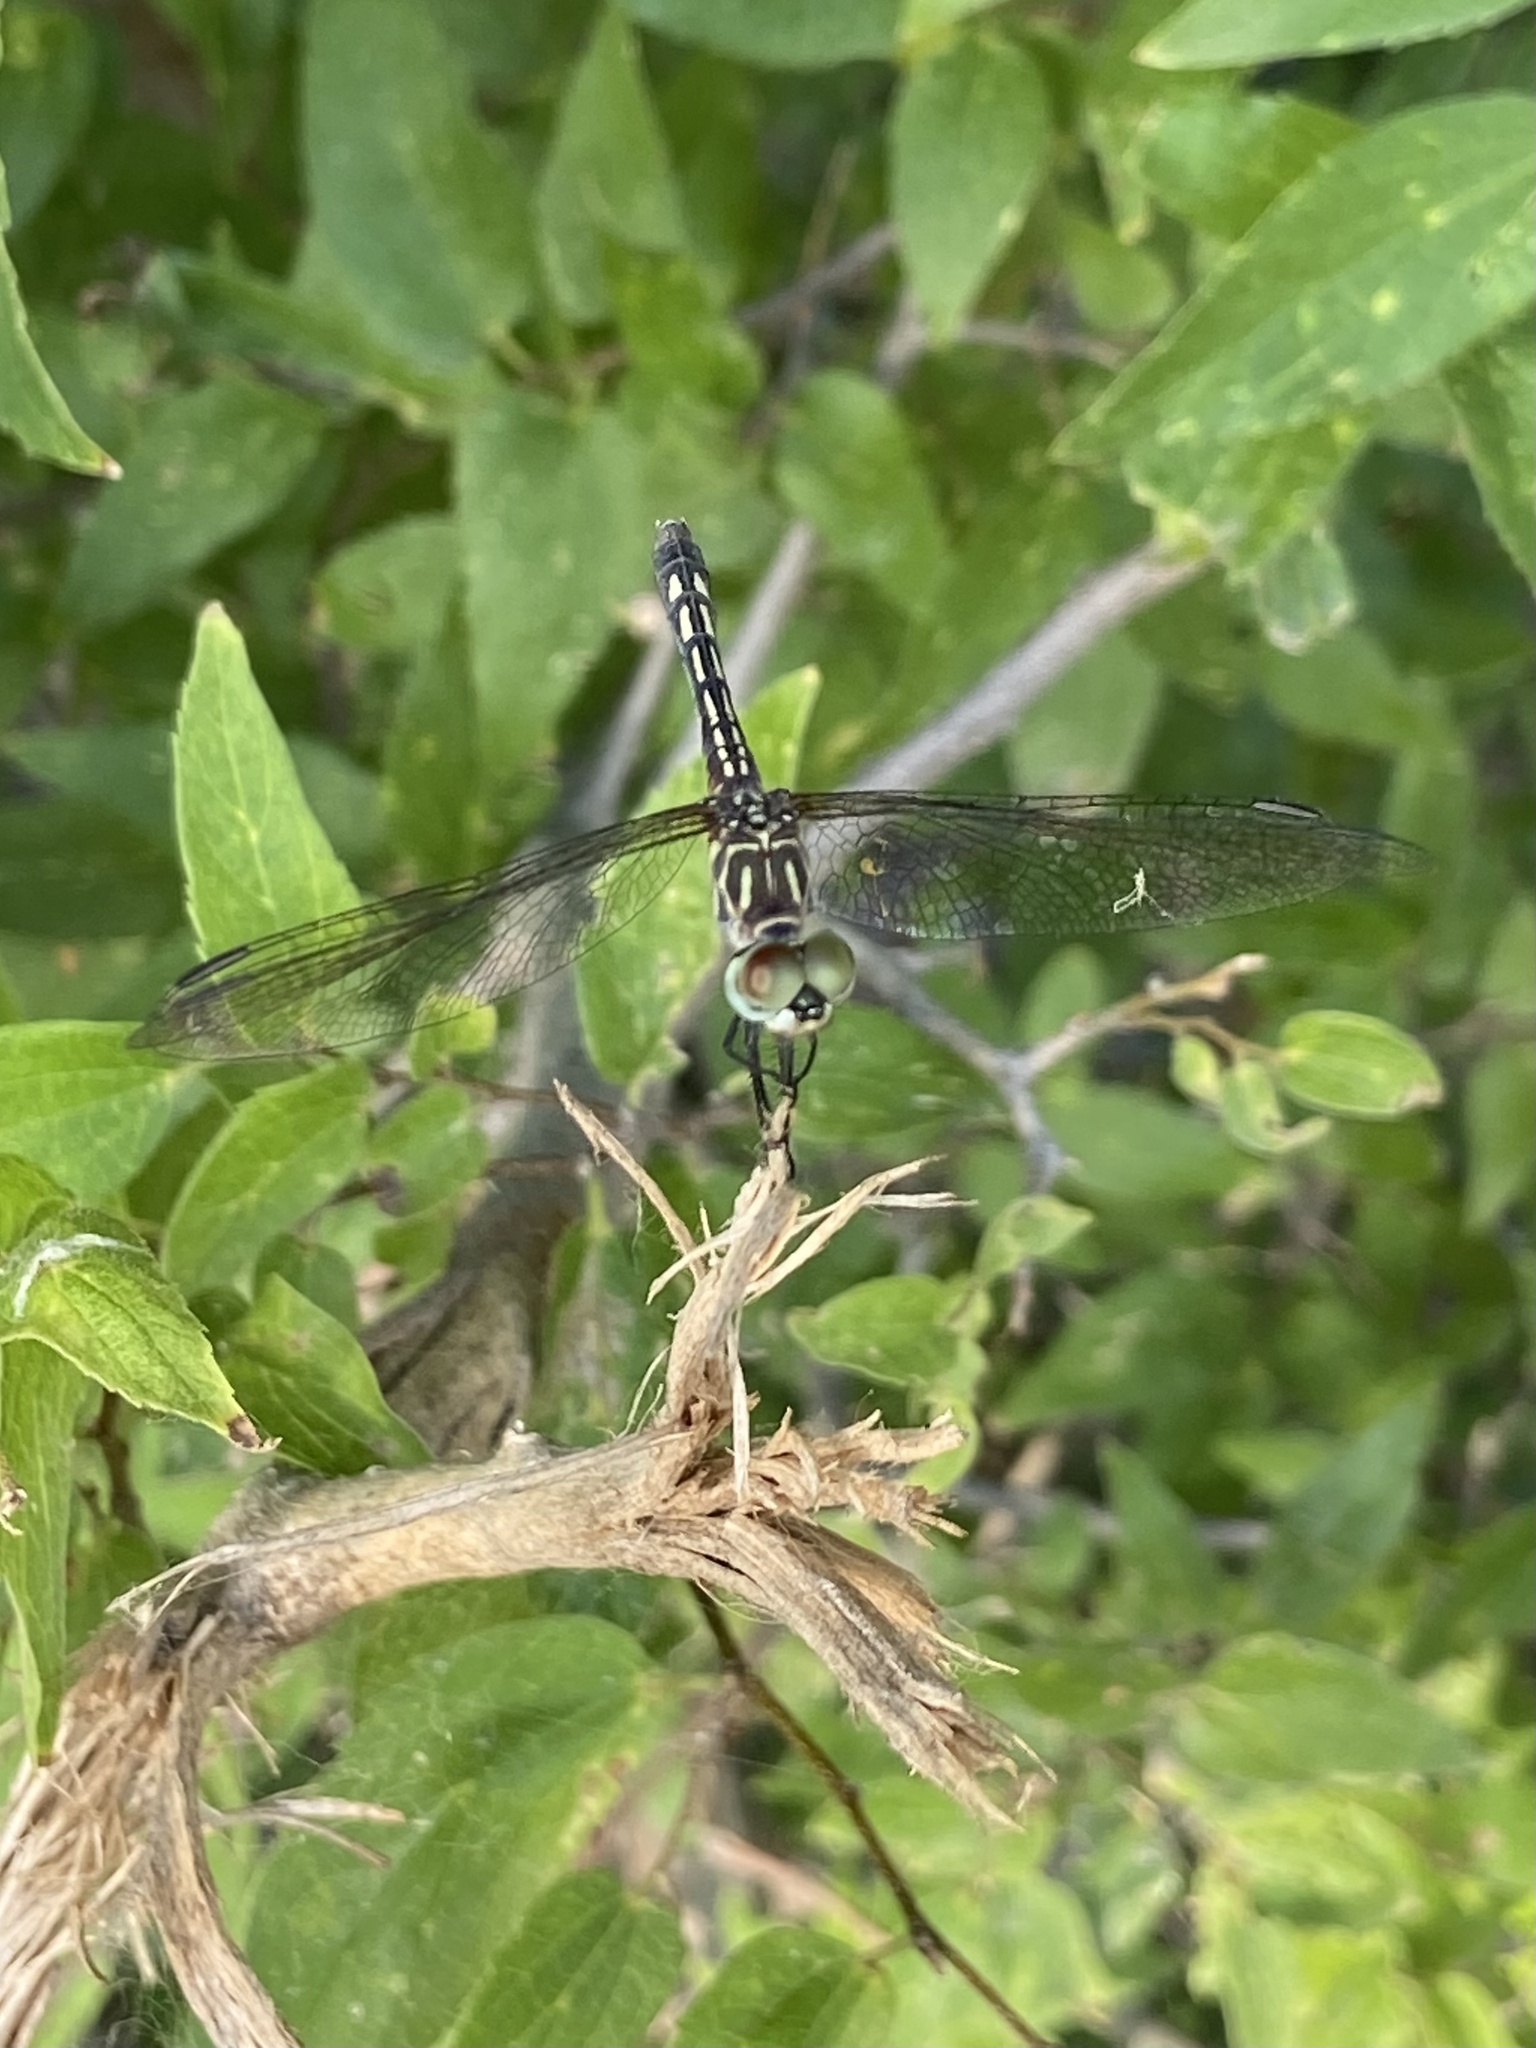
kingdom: Animalia
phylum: Arthropoda
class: Insecta
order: Odonata
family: Libellulidae
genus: Pachydiplax
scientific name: Pachydiplax longipennis
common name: Blue dasher
